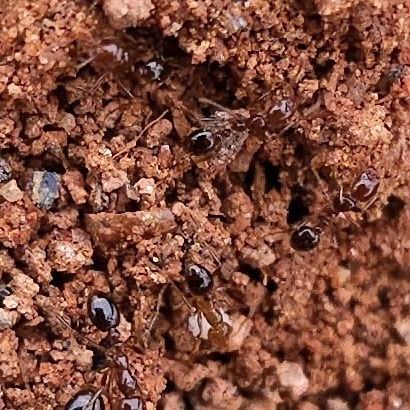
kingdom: Animalia
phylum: Arthropoda
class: Insecta
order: Hymenoptera
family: Formicidae
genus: Solenopsis
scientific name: Solenopsis invicta
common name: Red imported fire ant
